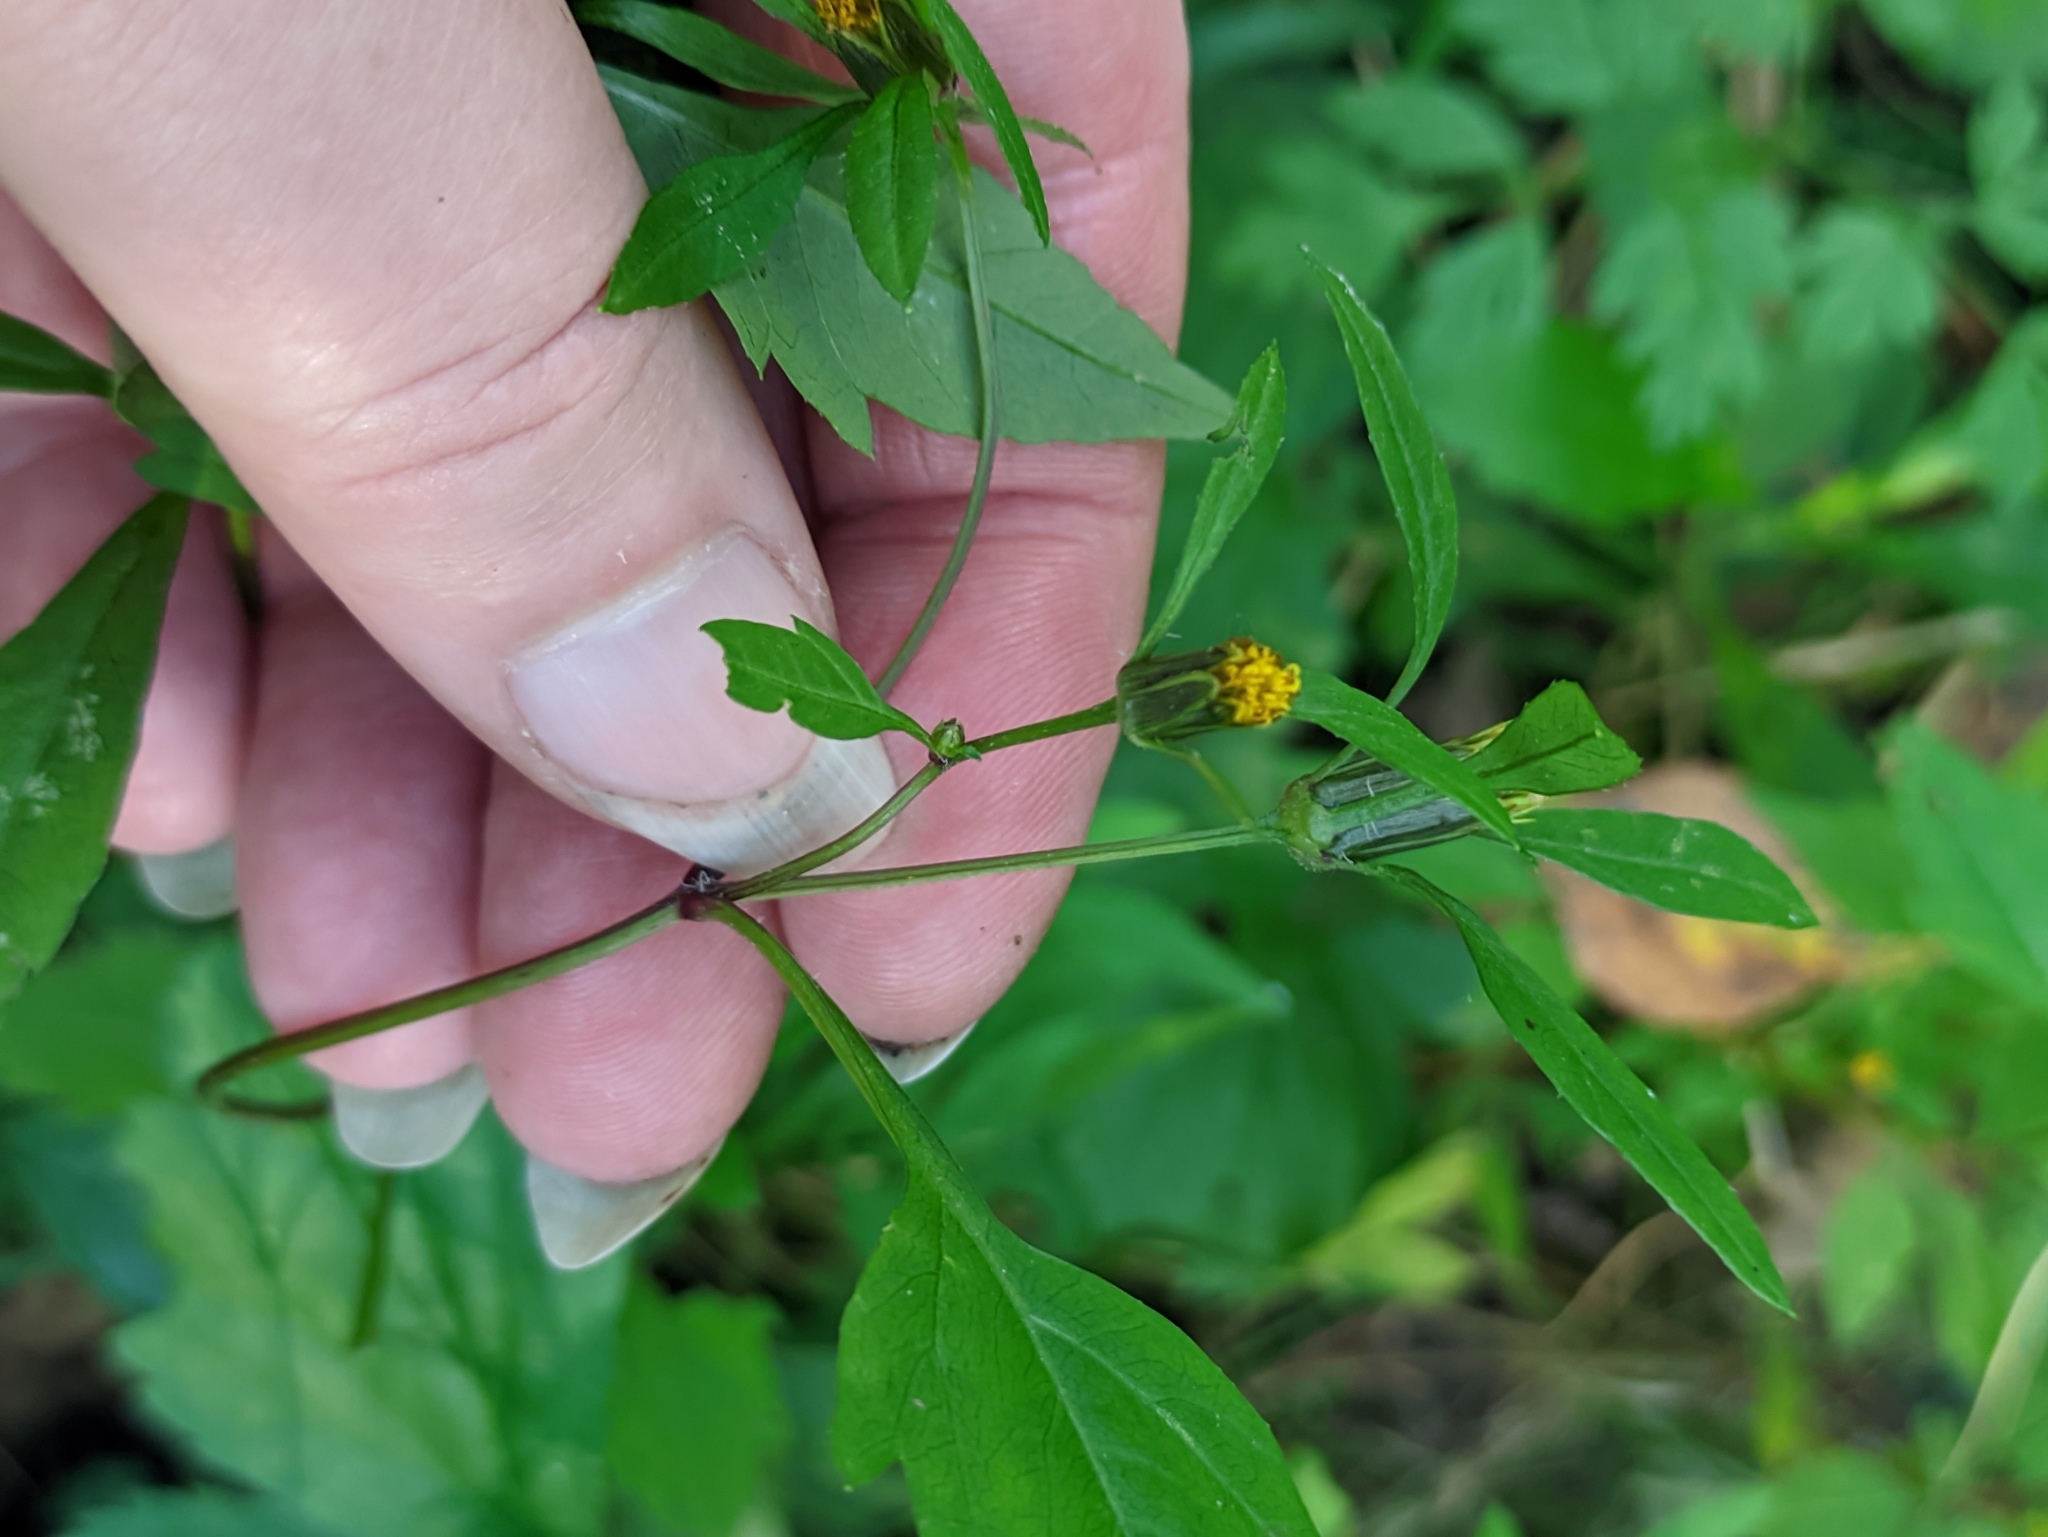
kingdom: Plantae
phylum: Tracheophyta
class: Magnoliopsida
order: Asterales
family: Asteraceae
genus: Bidens
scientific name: Bidens frondosa
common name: Beggarticks
